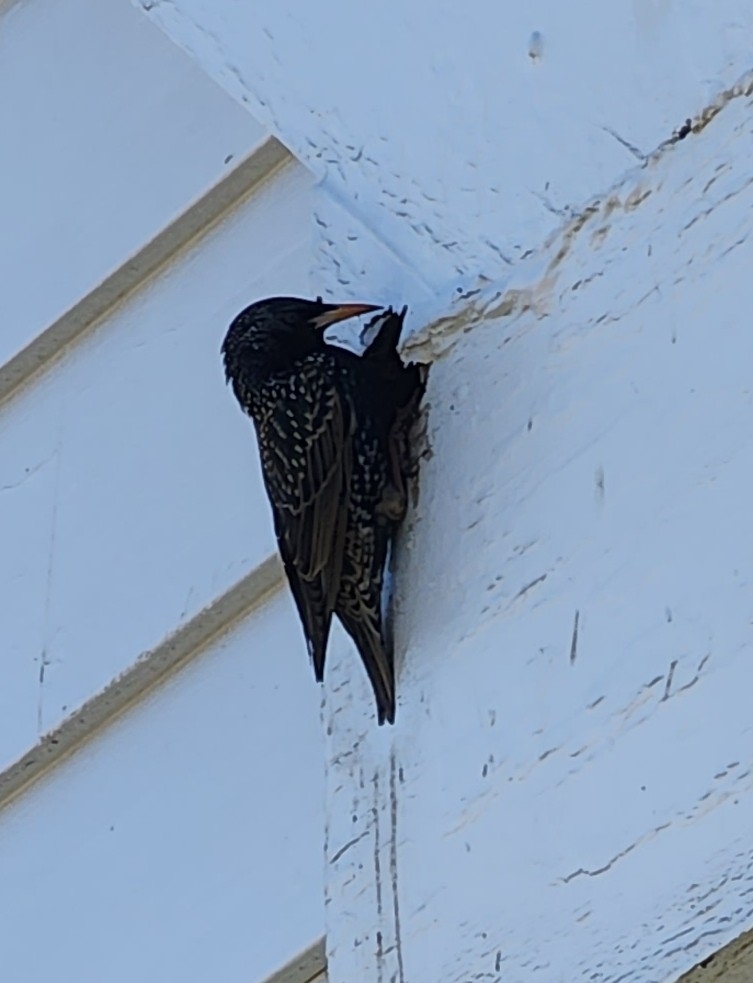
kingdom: Animalia
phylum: Chordata
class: Aves
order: Passeriformes
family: Sturnidae
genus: Sturnus
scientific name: Sturnus vulgaris
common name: Common starling
